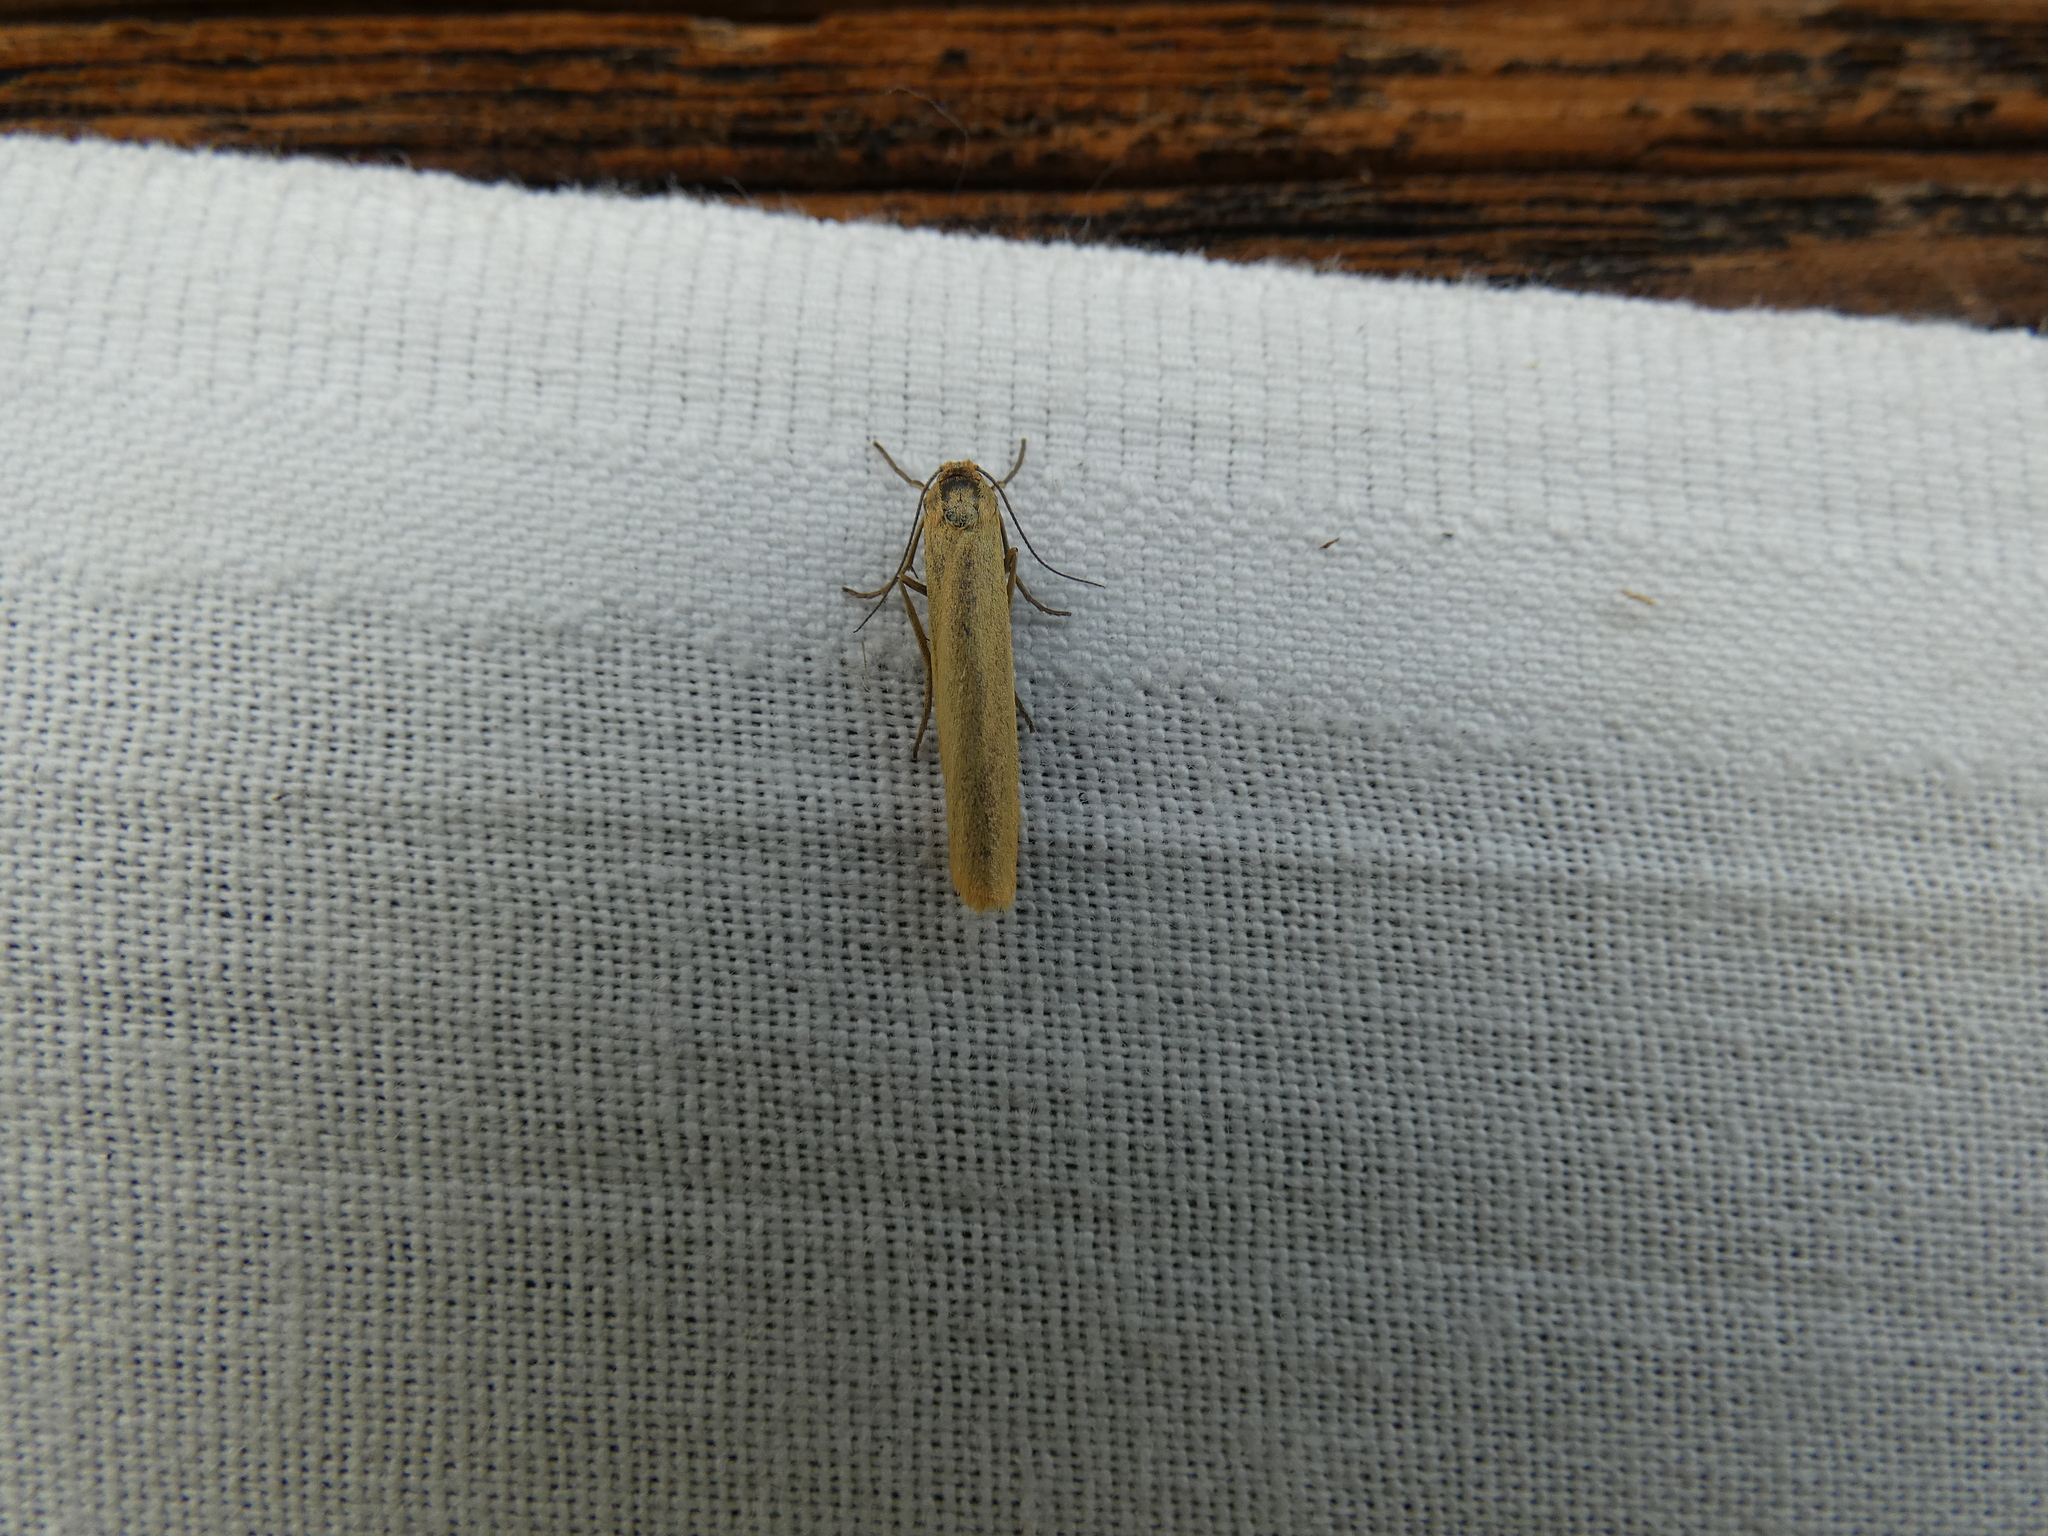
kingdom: Animalia
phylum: Arthropoda
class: Insecta
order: Lepidoptera
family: Erebidae
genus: Indalia
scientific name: Indalia lutarella
